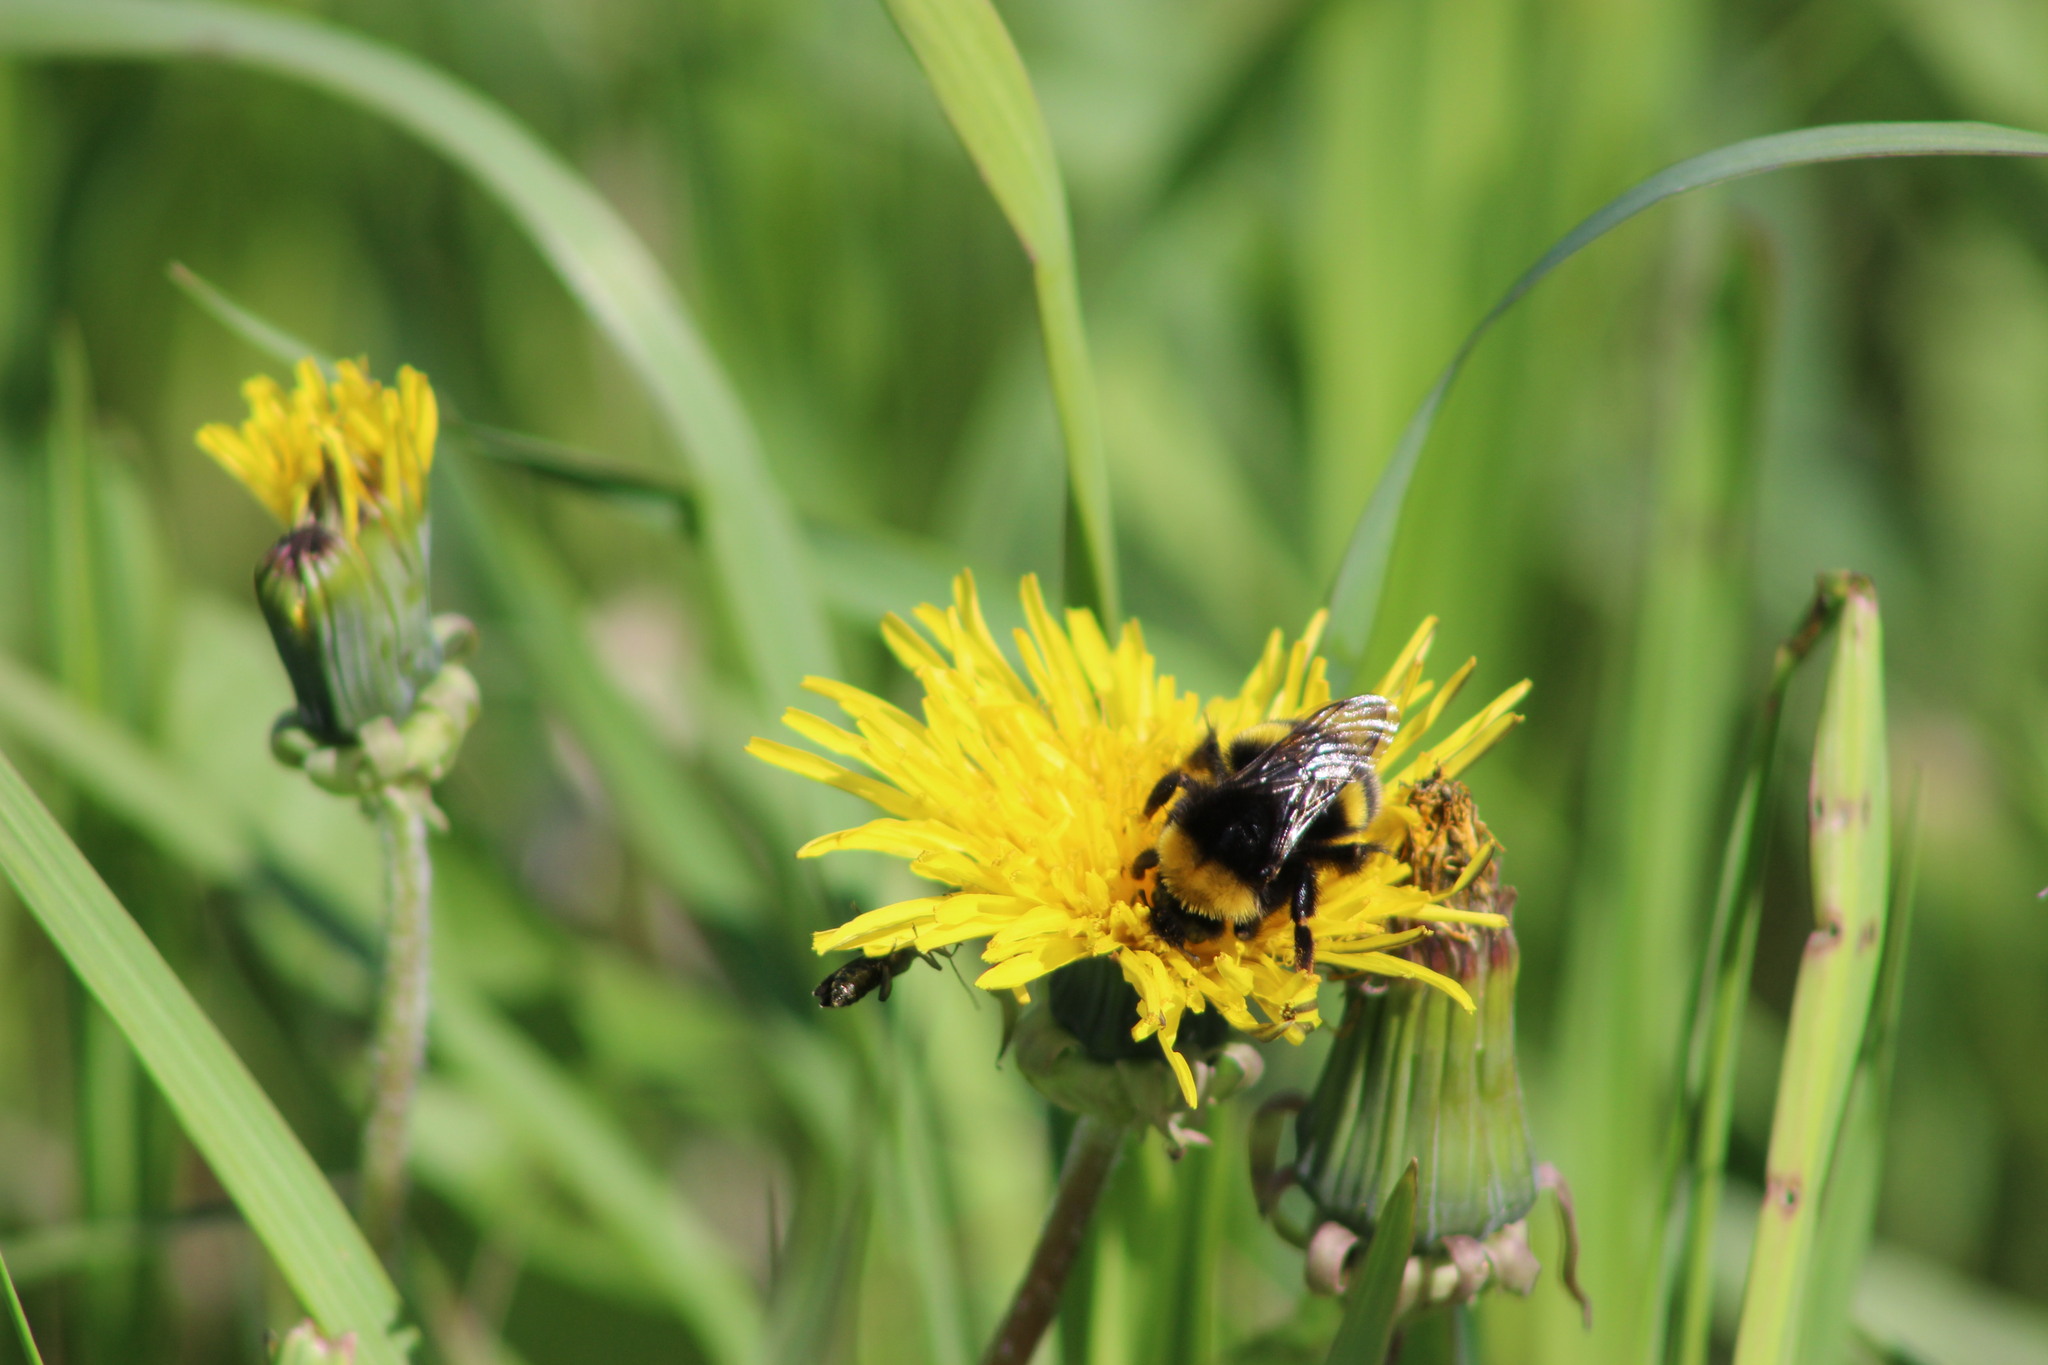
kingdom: Animalia
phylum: Arthropoda
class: Insecta
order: Hymenoptera
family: Apidae
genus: Bombus
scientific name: Bombus soroeensis
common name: Broken-belted humble-bee
